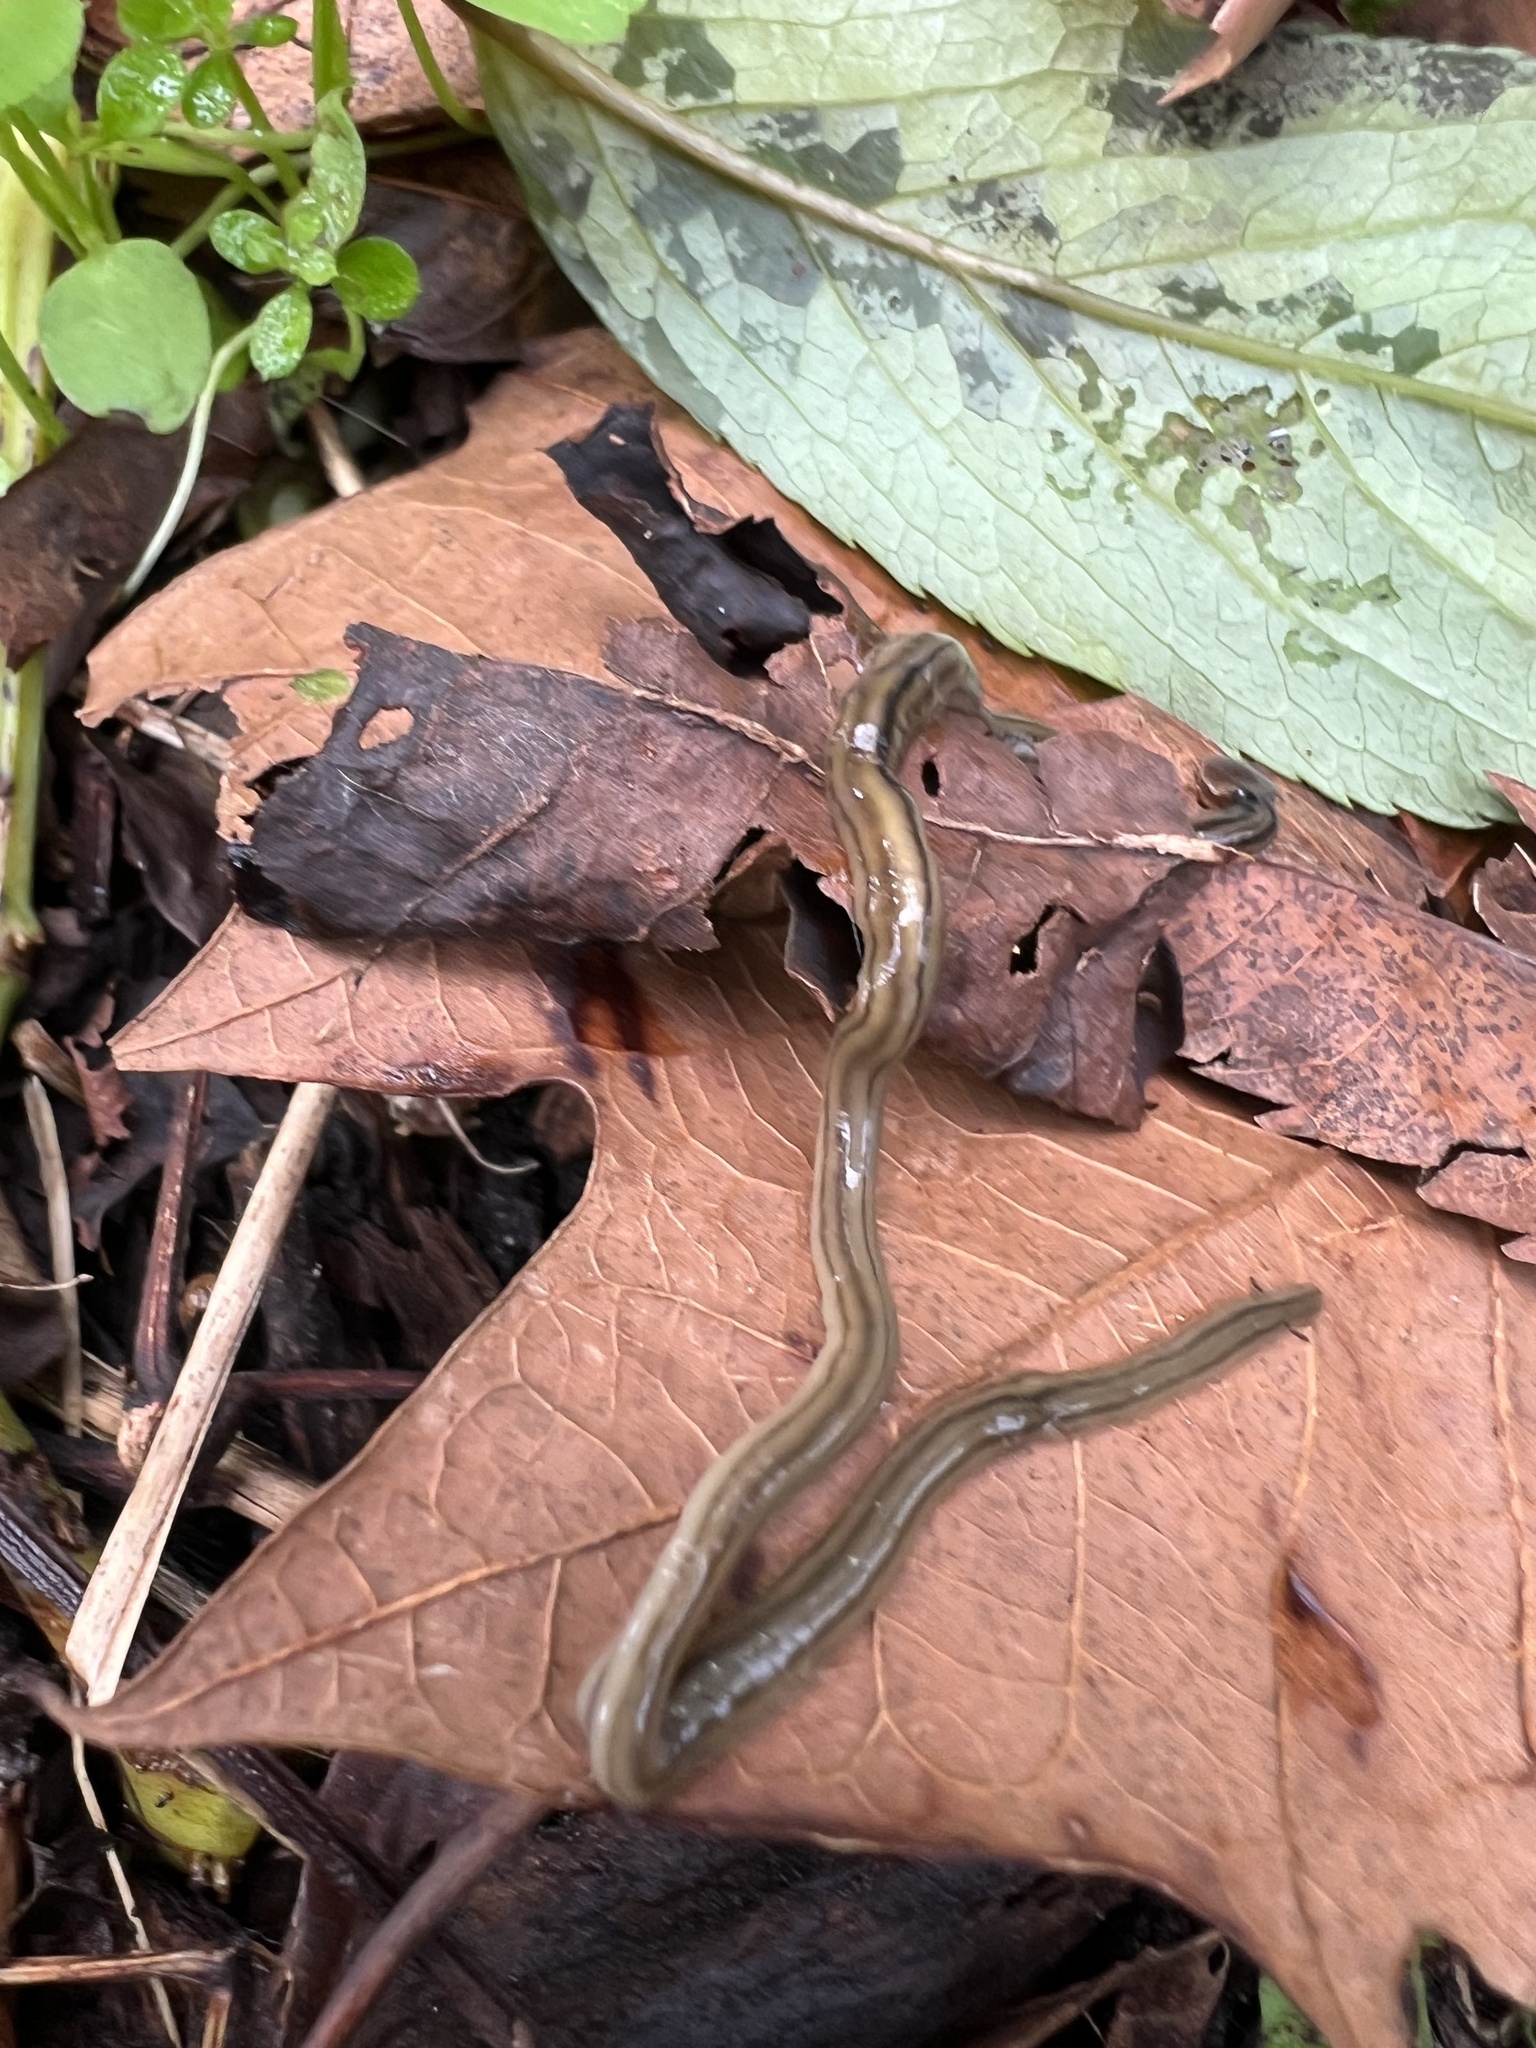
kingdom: Animalia
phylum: Platyhelminthes
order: Tricladida
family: Geoplanidae
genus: Bipalium
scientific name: Bipalium kewense
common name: Hammerhead flatworm
